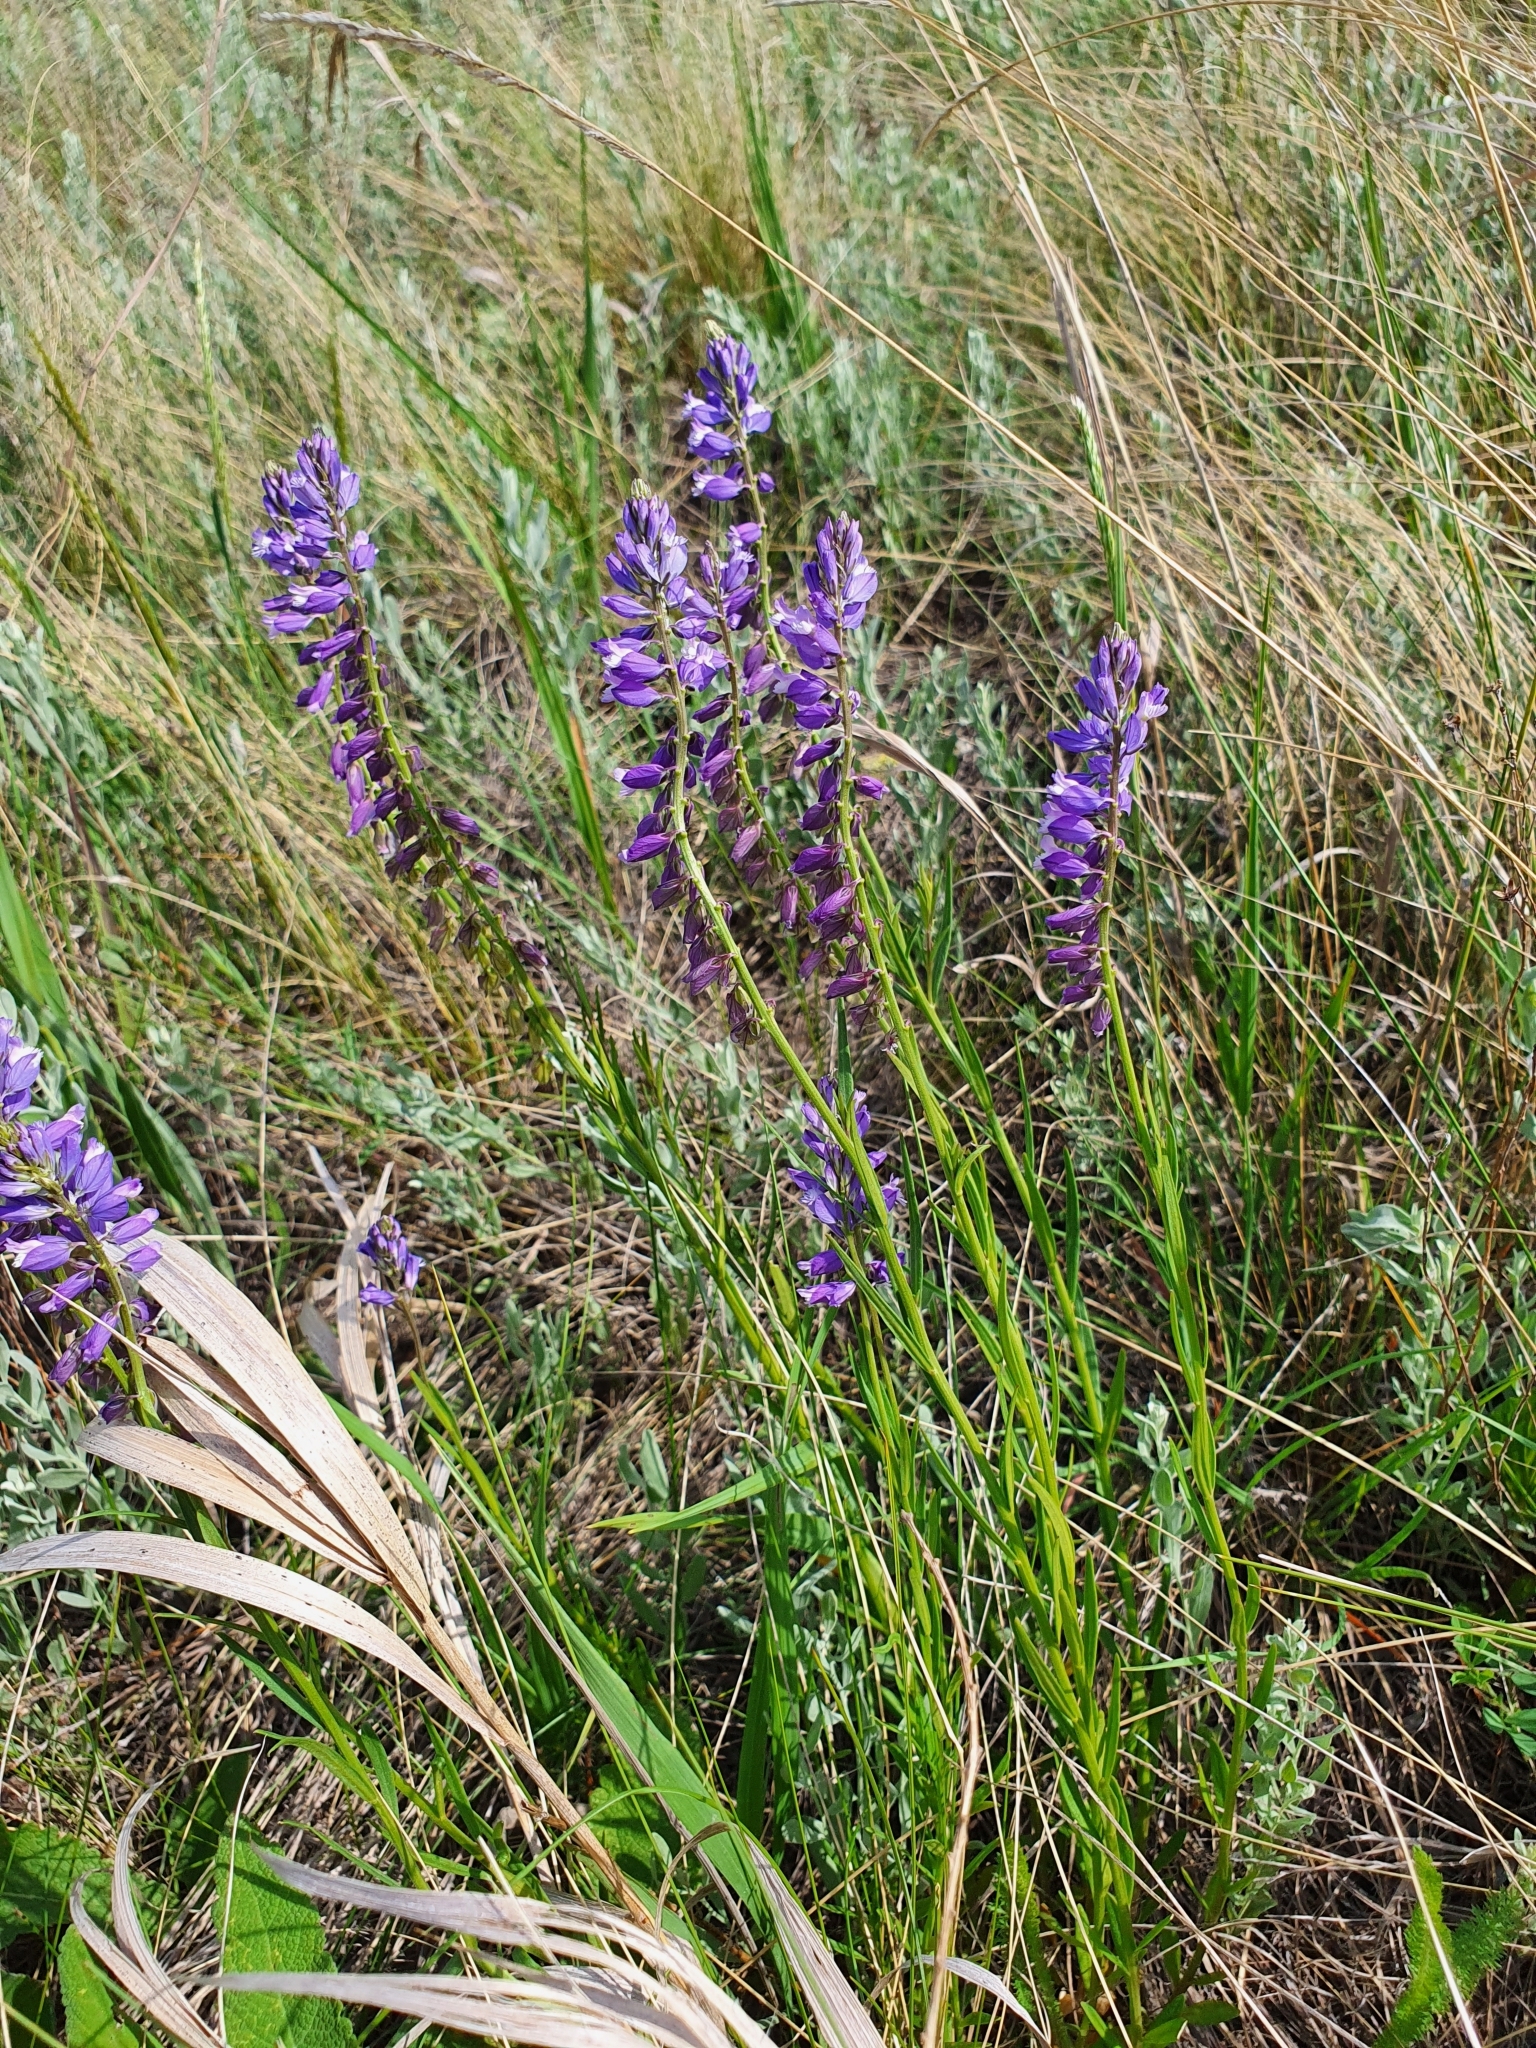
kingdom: Plantae
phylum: Tracheophyta
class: Magnoliopsida
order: Fabales
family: Polygalaceae
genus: Polygala
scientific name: Polygala comosa
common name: Tufted milkwort
